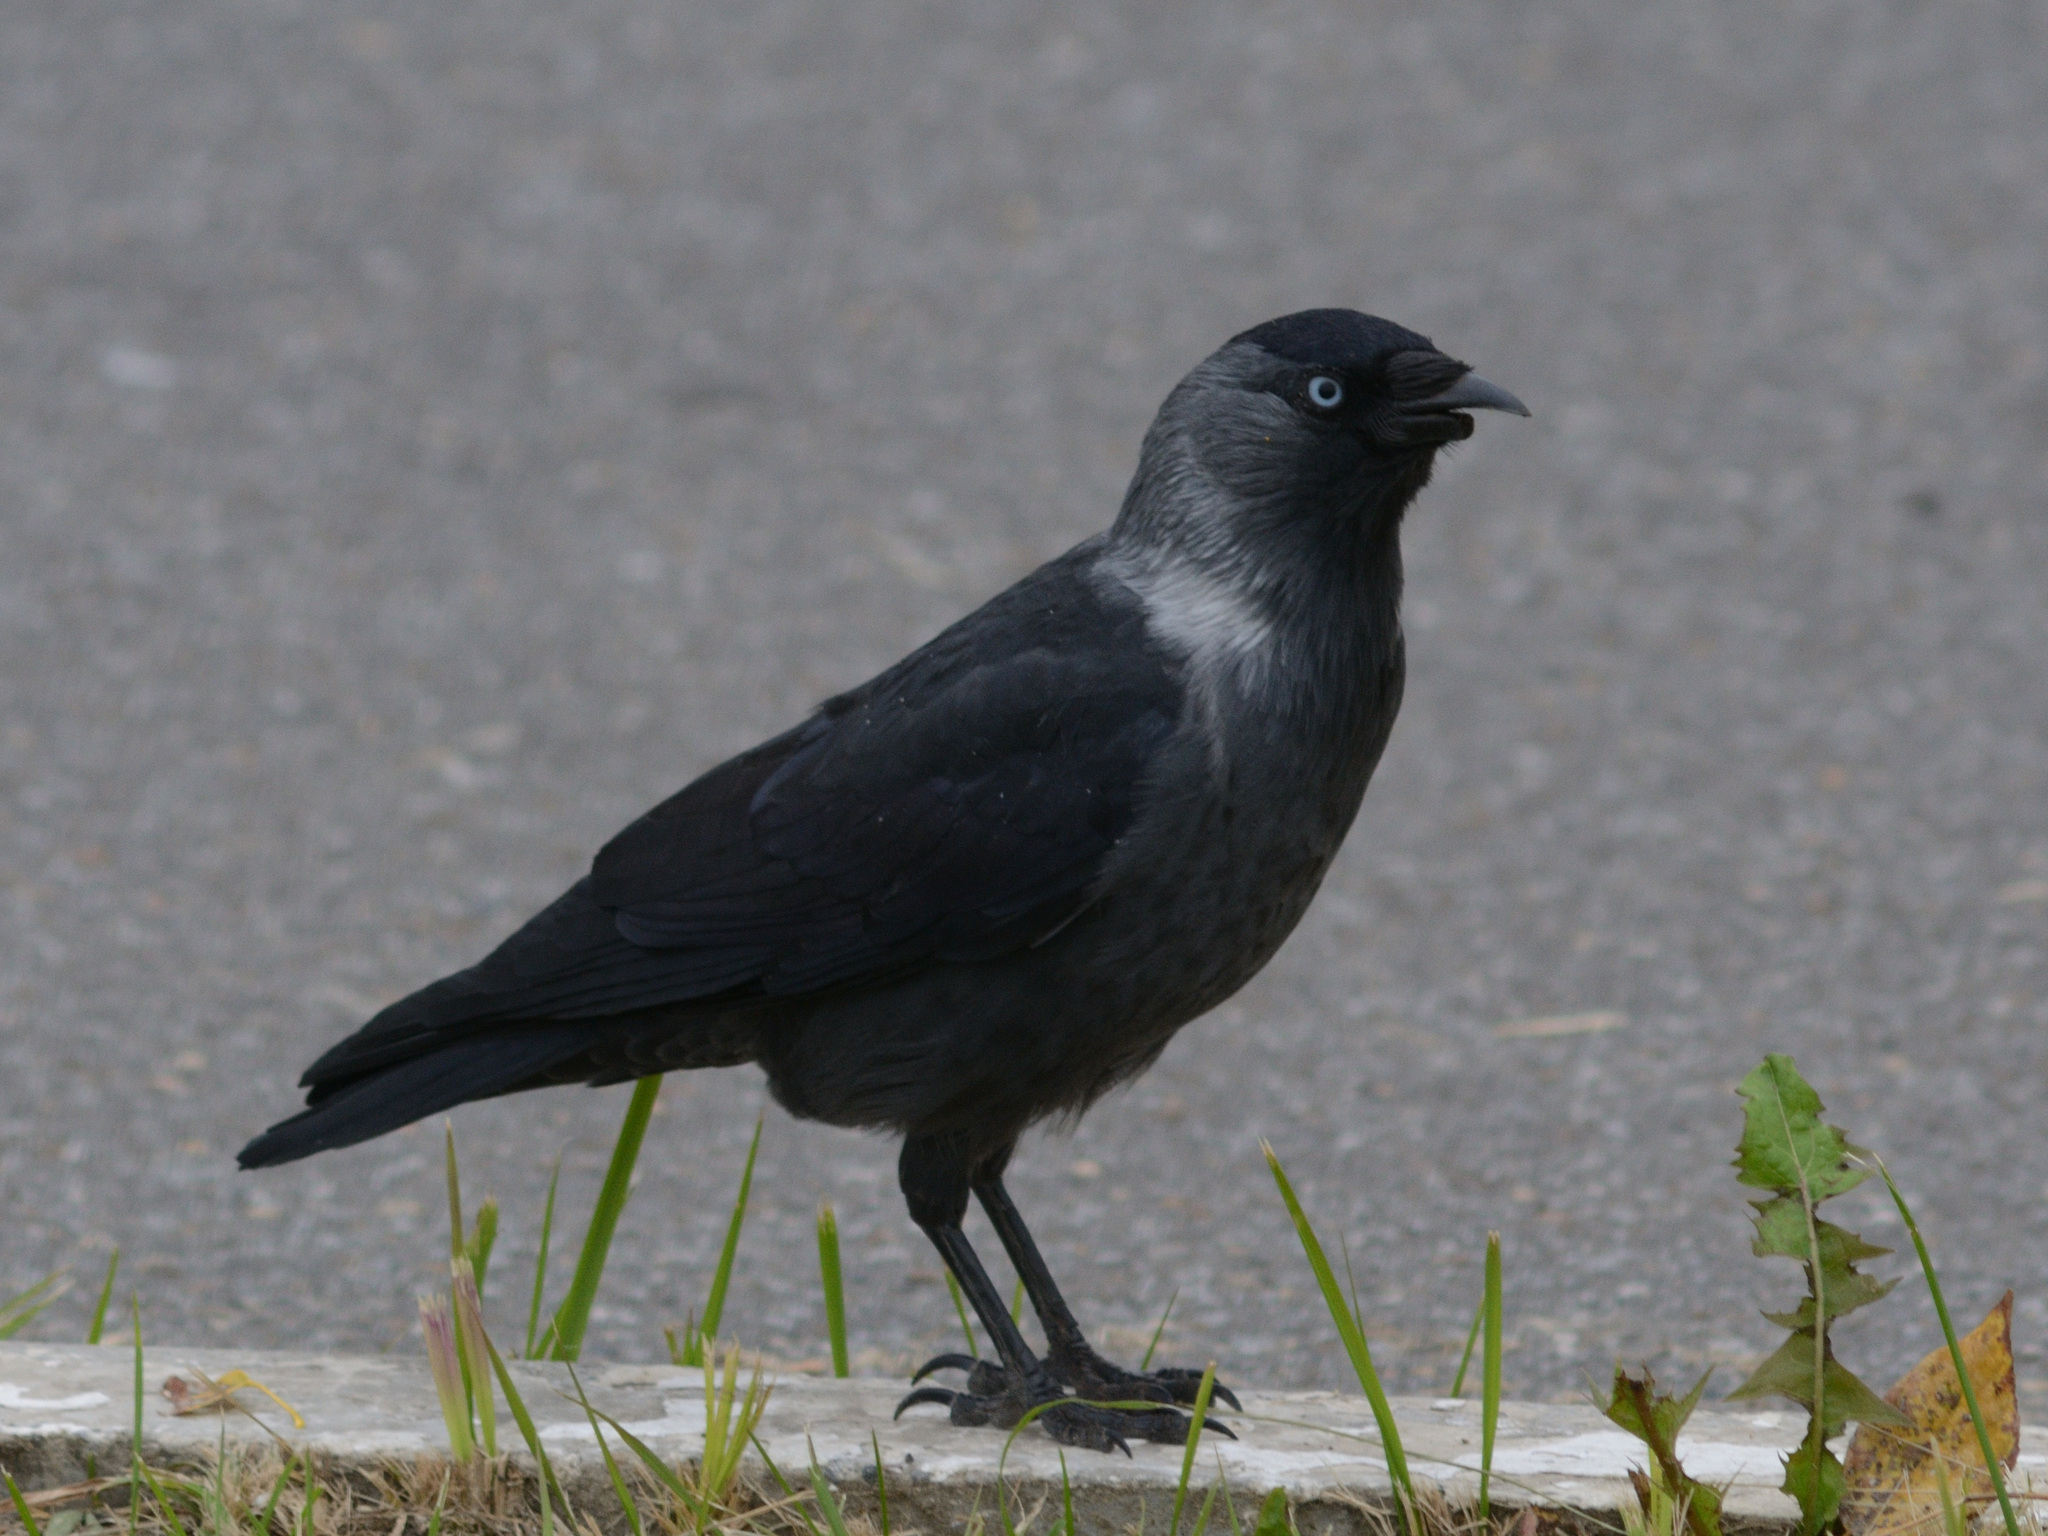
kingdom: Animalia
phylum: Chordata
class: Aves
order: Passeriformes
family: Corvidae
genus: Coloeus
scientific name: Coloeus monedula
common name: Western jackdaw
